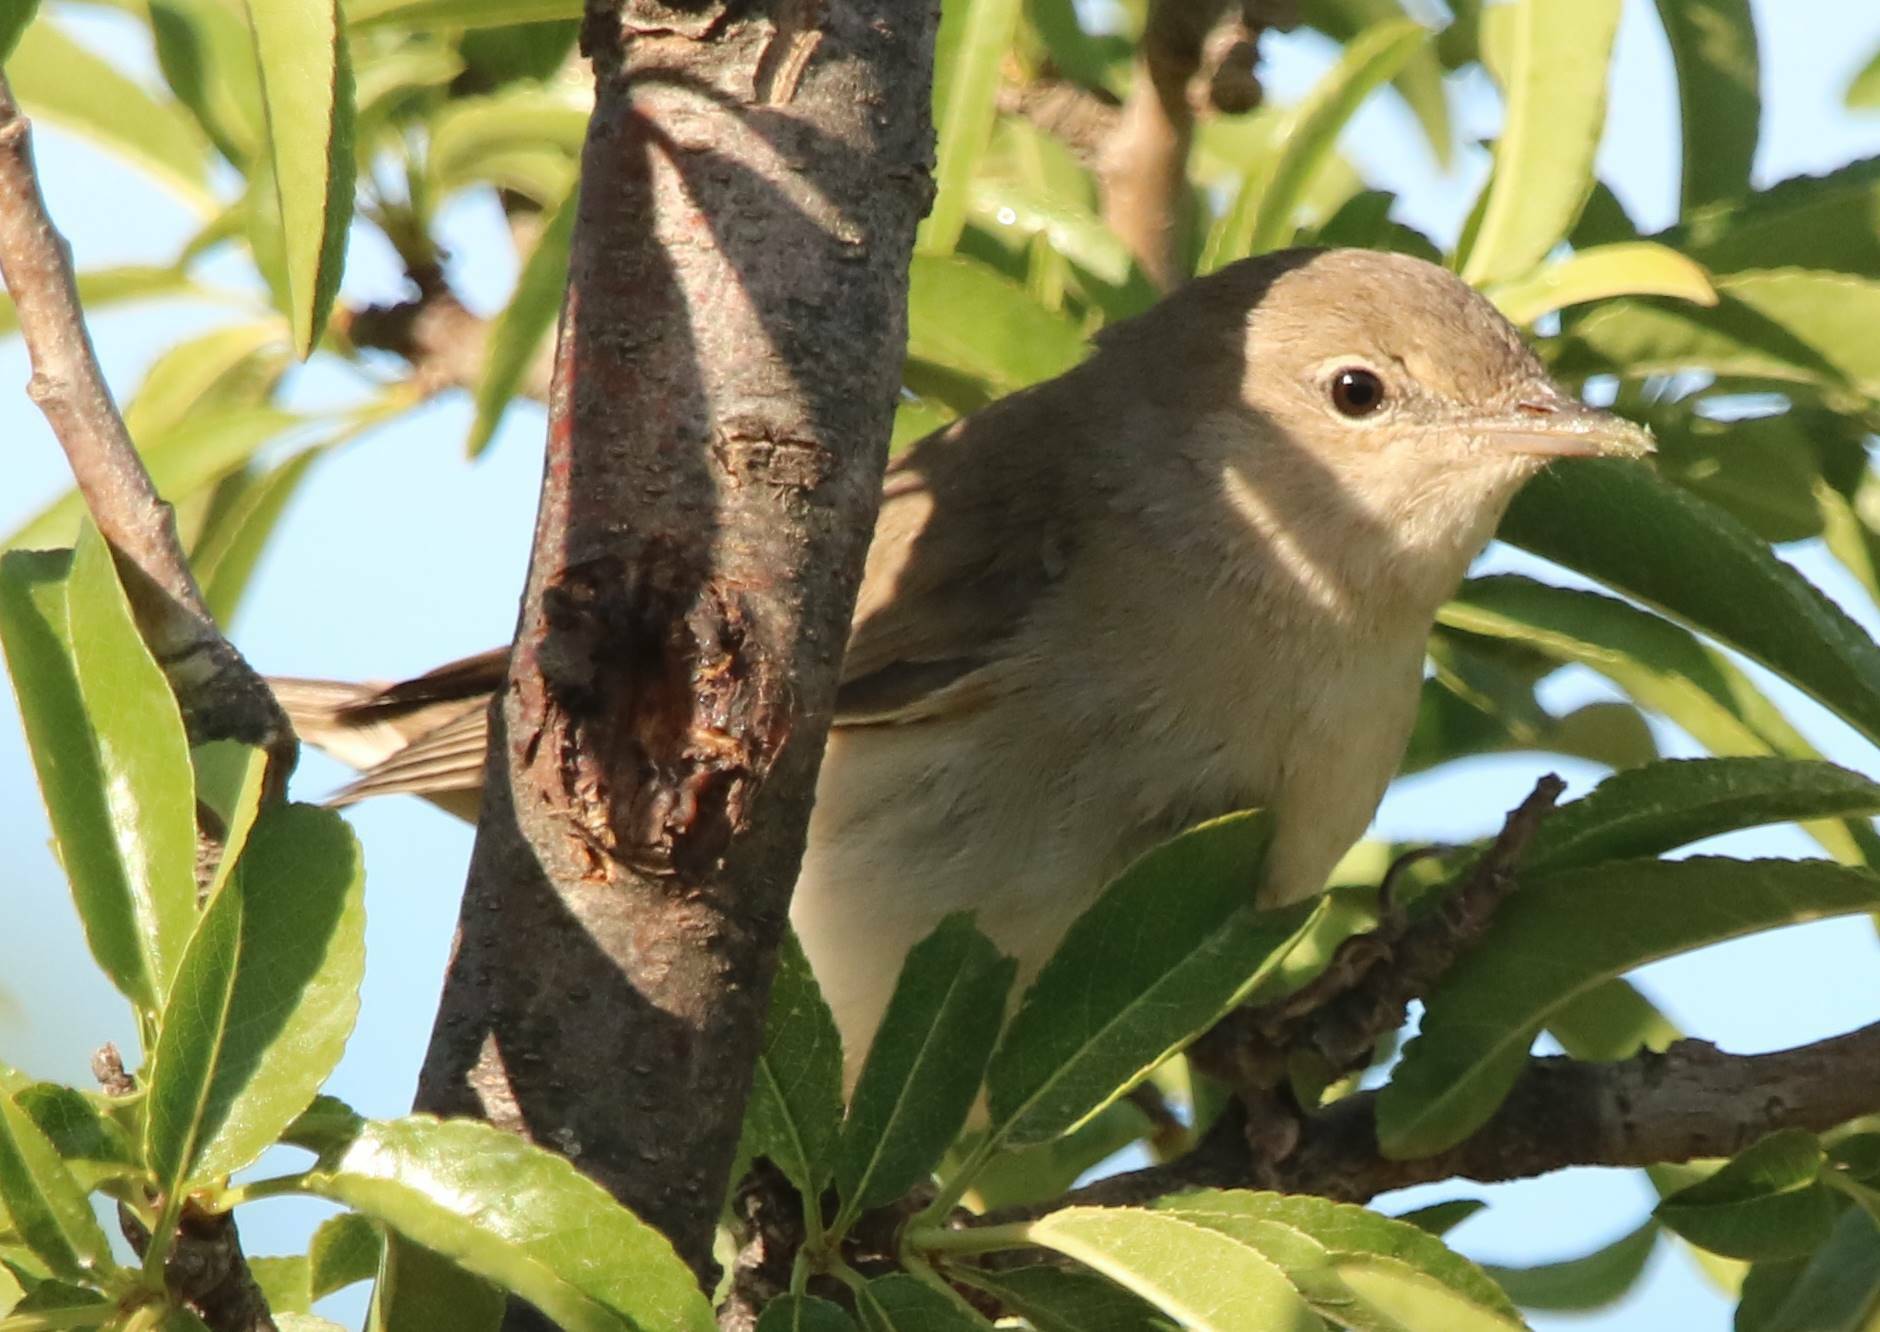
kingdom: Animalia
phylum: Chordata
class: Aves
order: Passeriformes
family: Sylviidae
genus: Sylvia
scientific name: Sylvia borin
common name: Garden warbler
